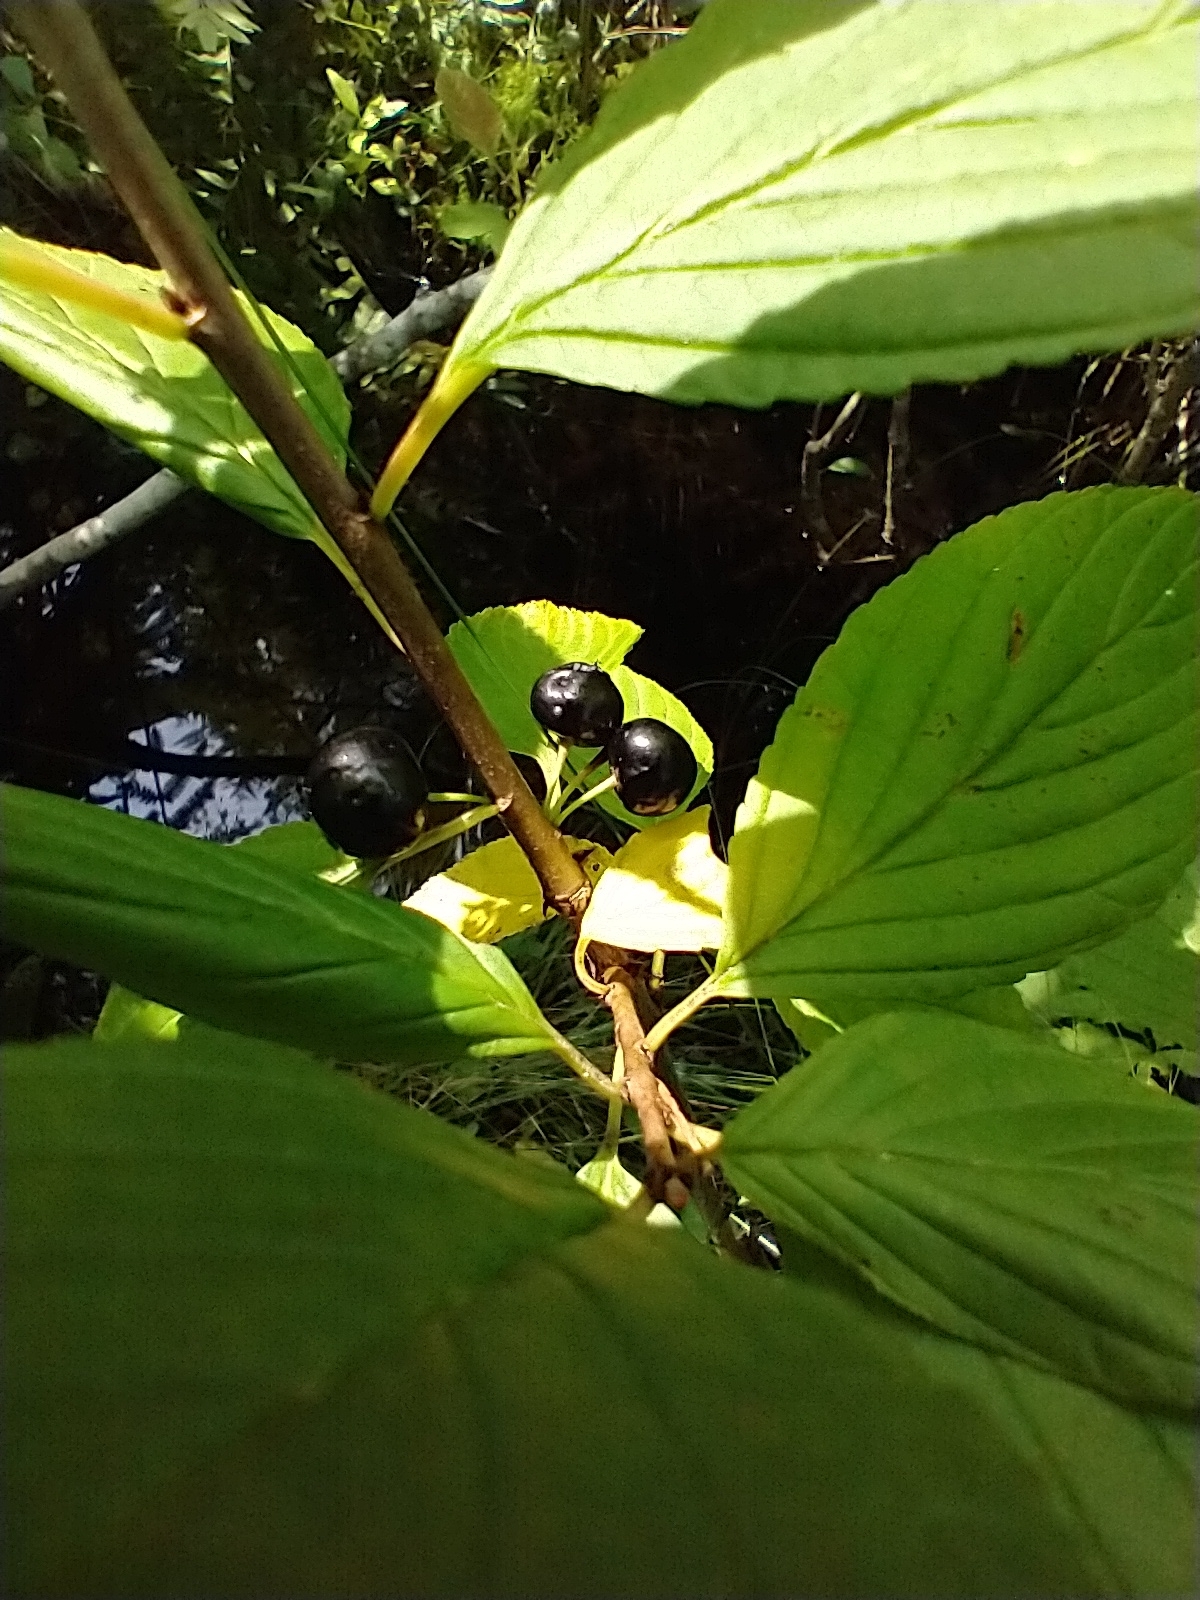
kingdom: Plantae
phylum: Tracheophyta
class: Magnoliopsida
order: Rosales
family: Rhamnaceae
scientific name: Rhamnaceae
